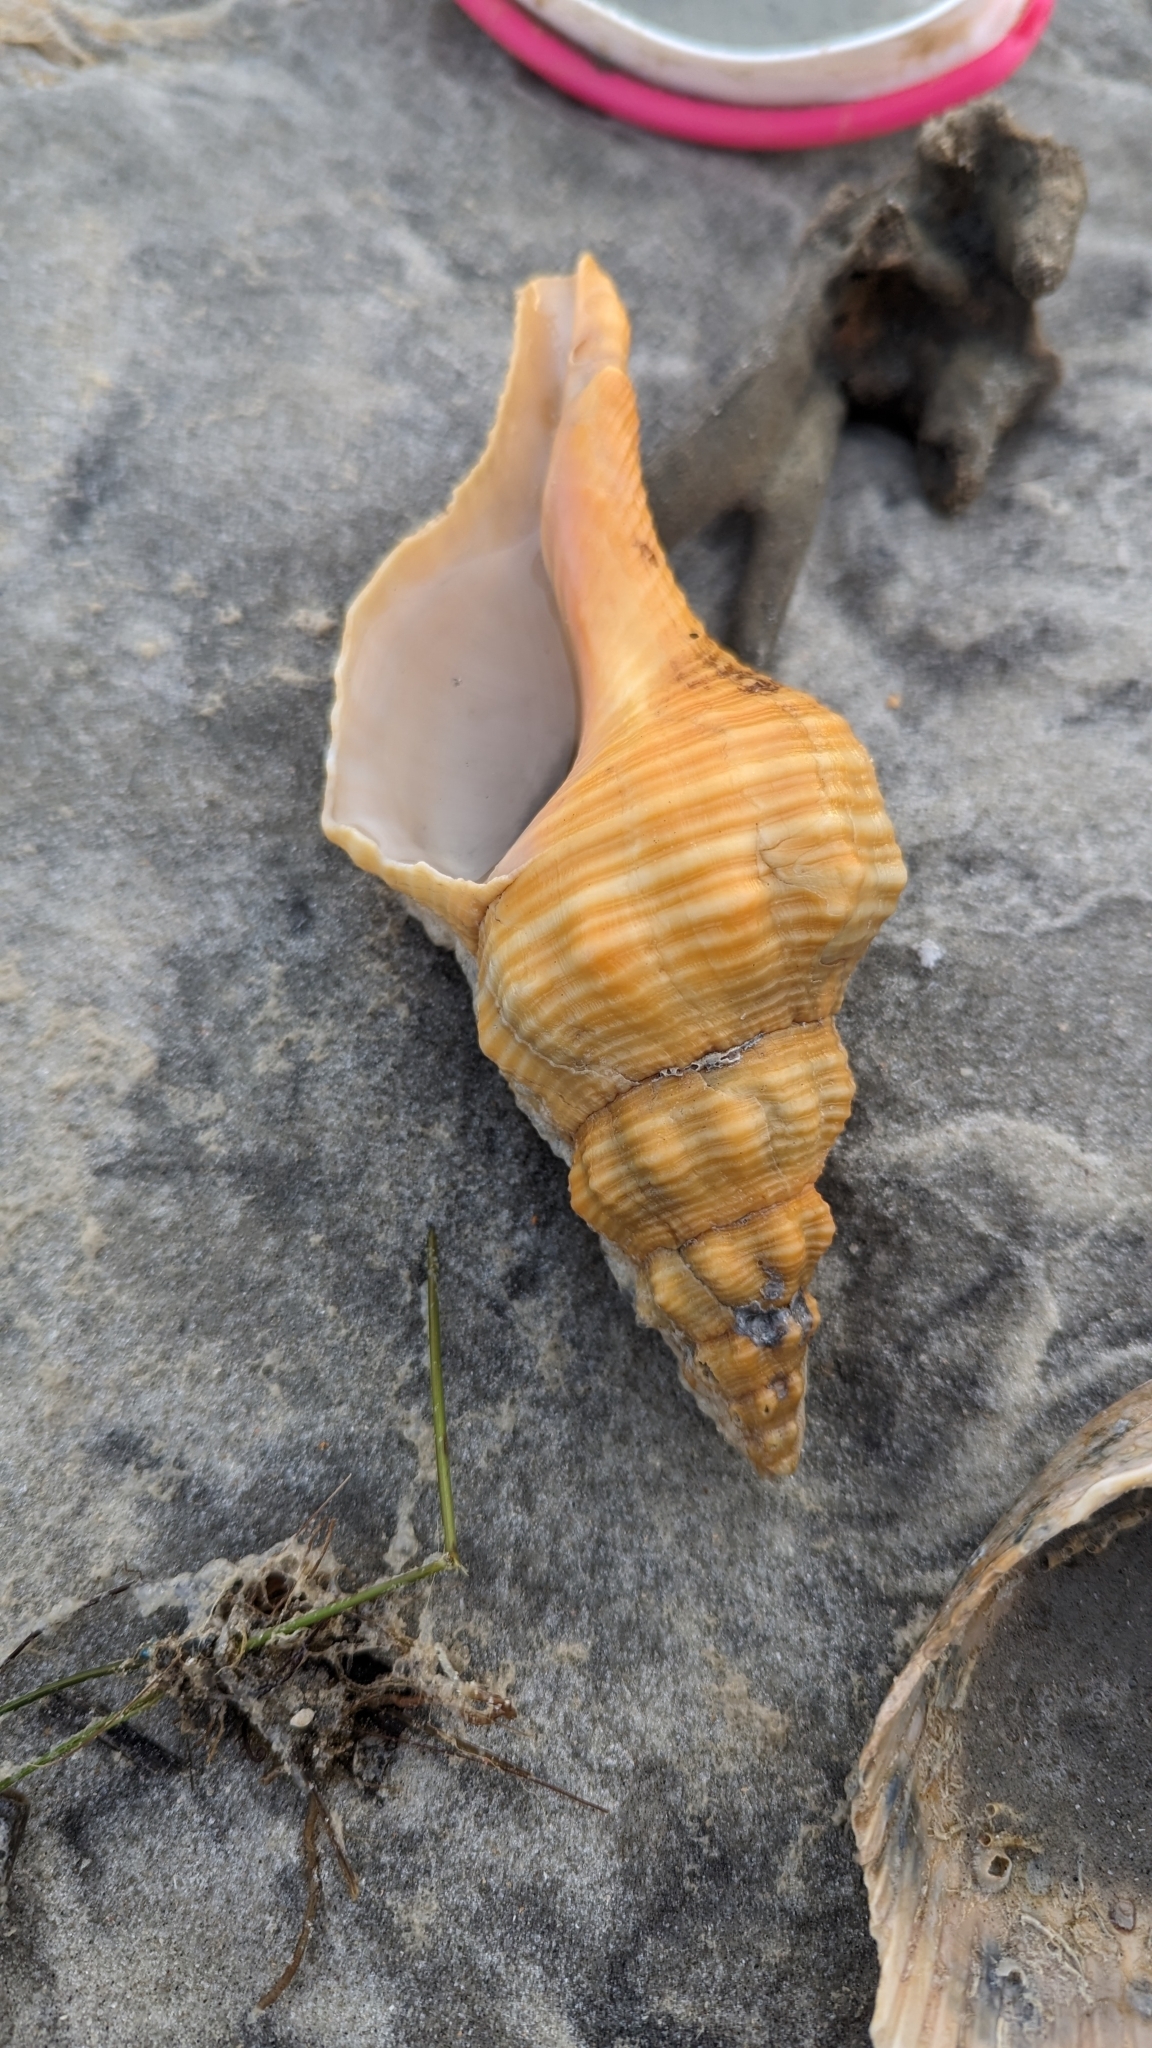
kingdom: Animalia
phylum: Mollusca
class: Gastropoda
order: Neogastropoda
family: Fasciolariidae
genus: Triplofusus
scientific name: Triplofusus giganteus
